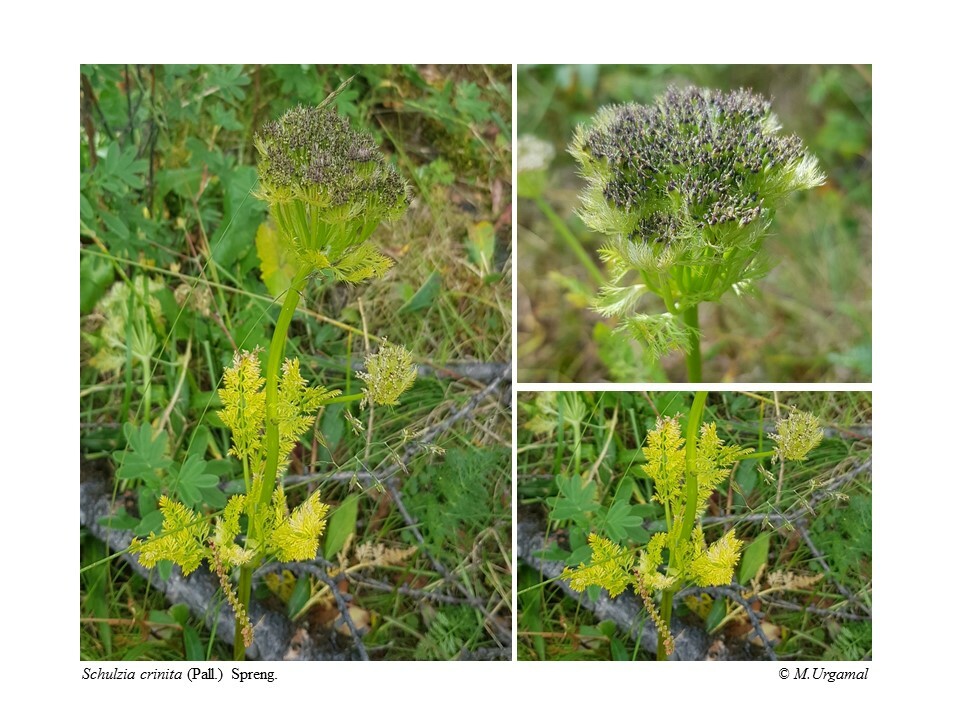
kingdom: Plantae
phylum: Tracheophyta
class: Magnoliopsida
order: Apiales
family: Apiaceae
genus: Schulzia
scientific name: Schulzia crinita
